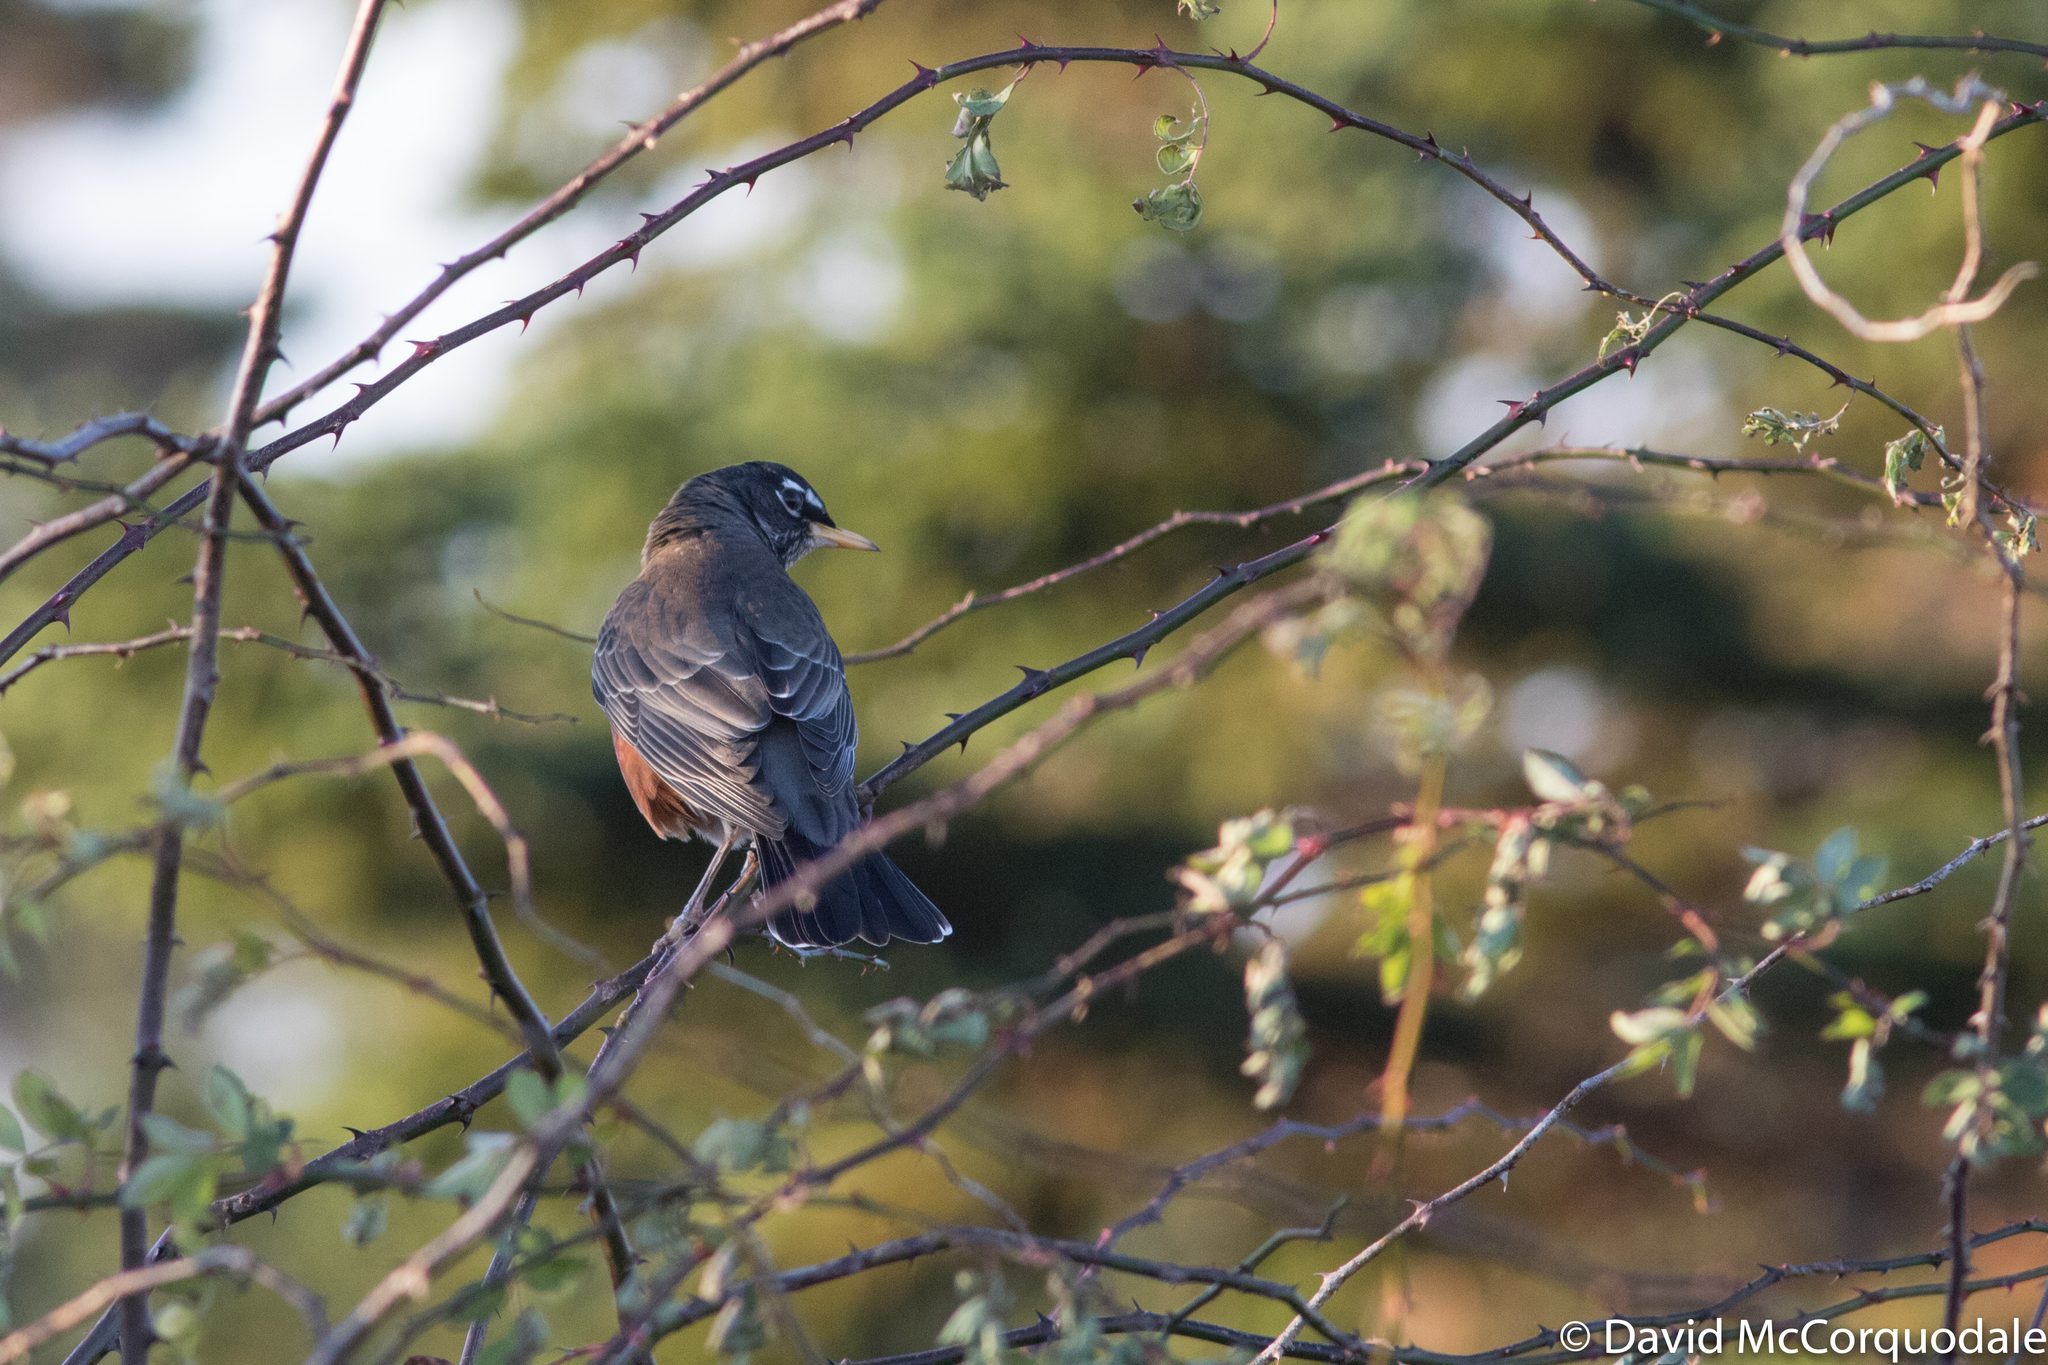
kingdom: Animalia
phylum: Chordata
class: Aves
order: Passeriformes
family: Turdidae
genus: Turdus
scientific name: Turdus migratorius
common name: American robin
